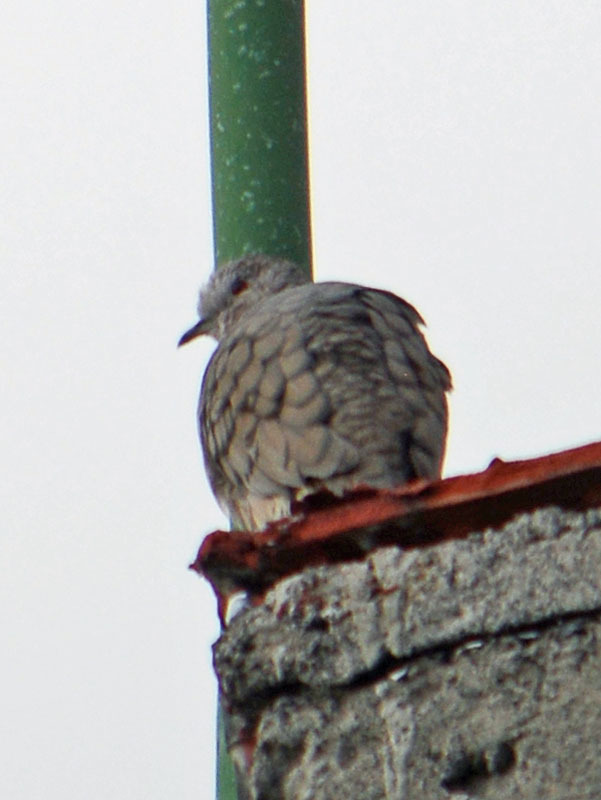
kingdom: Animalia
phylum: Chordata
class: Aves
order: Columbiformes
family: Columbidae
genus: Columbina
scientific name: Columbina inca
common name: Inca dove
